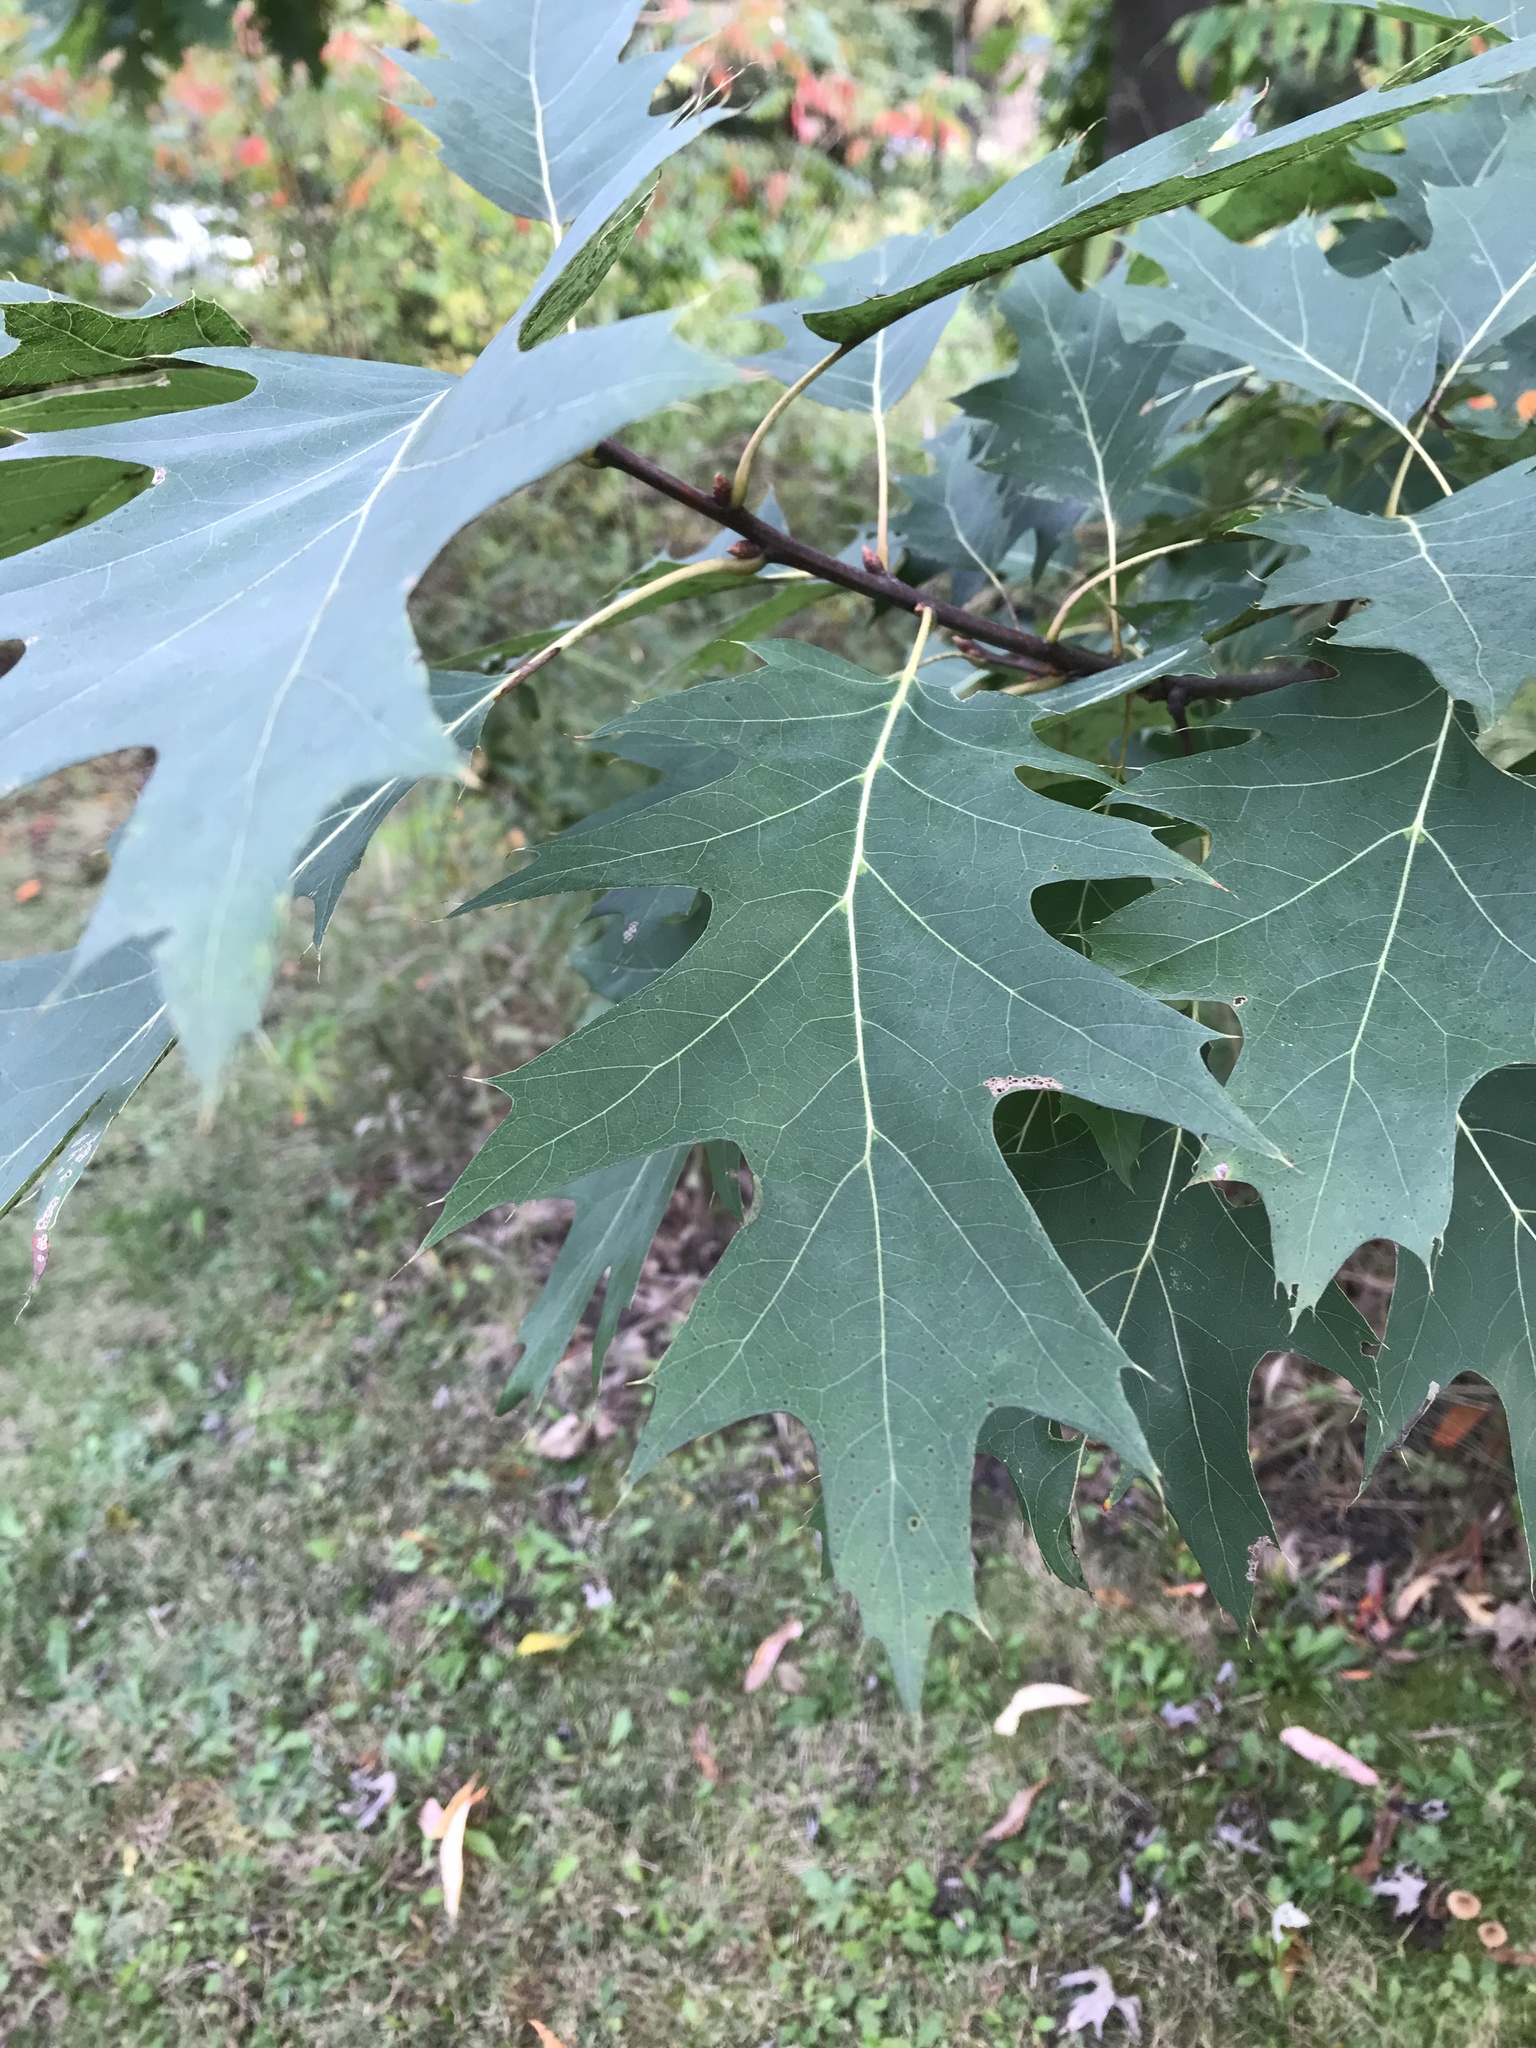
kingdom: Plantae
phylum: Tracheophyta
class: Magnoliopsida
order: Fagales
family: Fagaceae
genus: Quercus
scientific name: Quercus rubra
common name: Red oak
